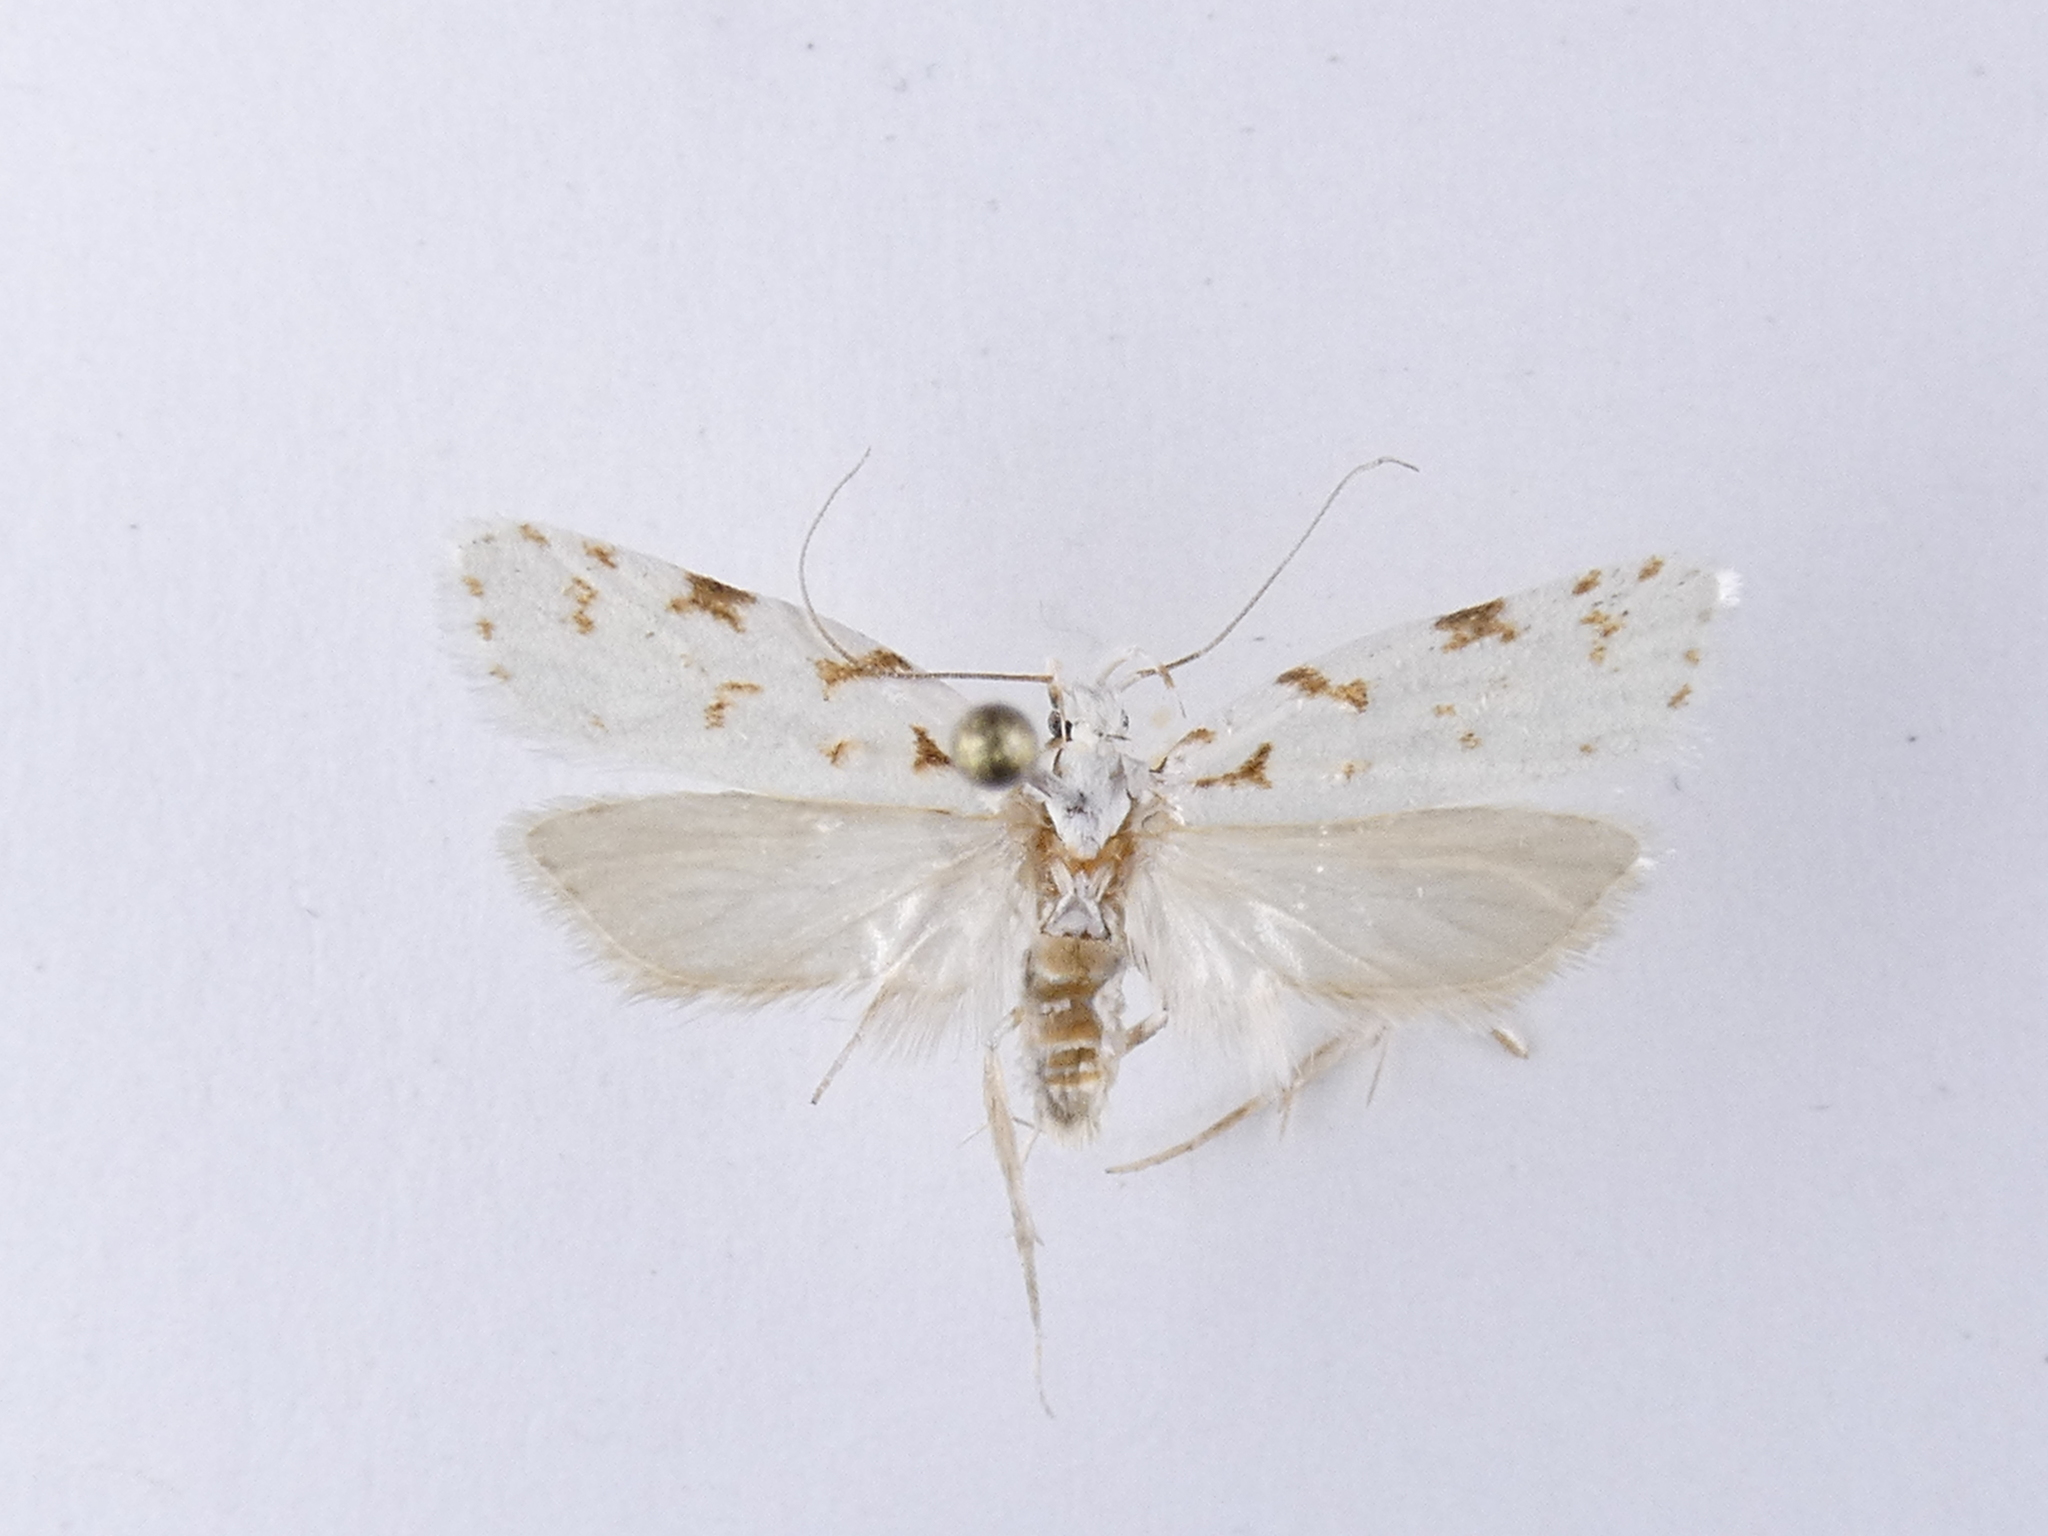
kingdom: Animalia
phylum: Arthropoda
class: Insecta
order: Lepidoptera
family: Oecophoridae
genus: Izatha
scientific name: Izatha hudsoni
